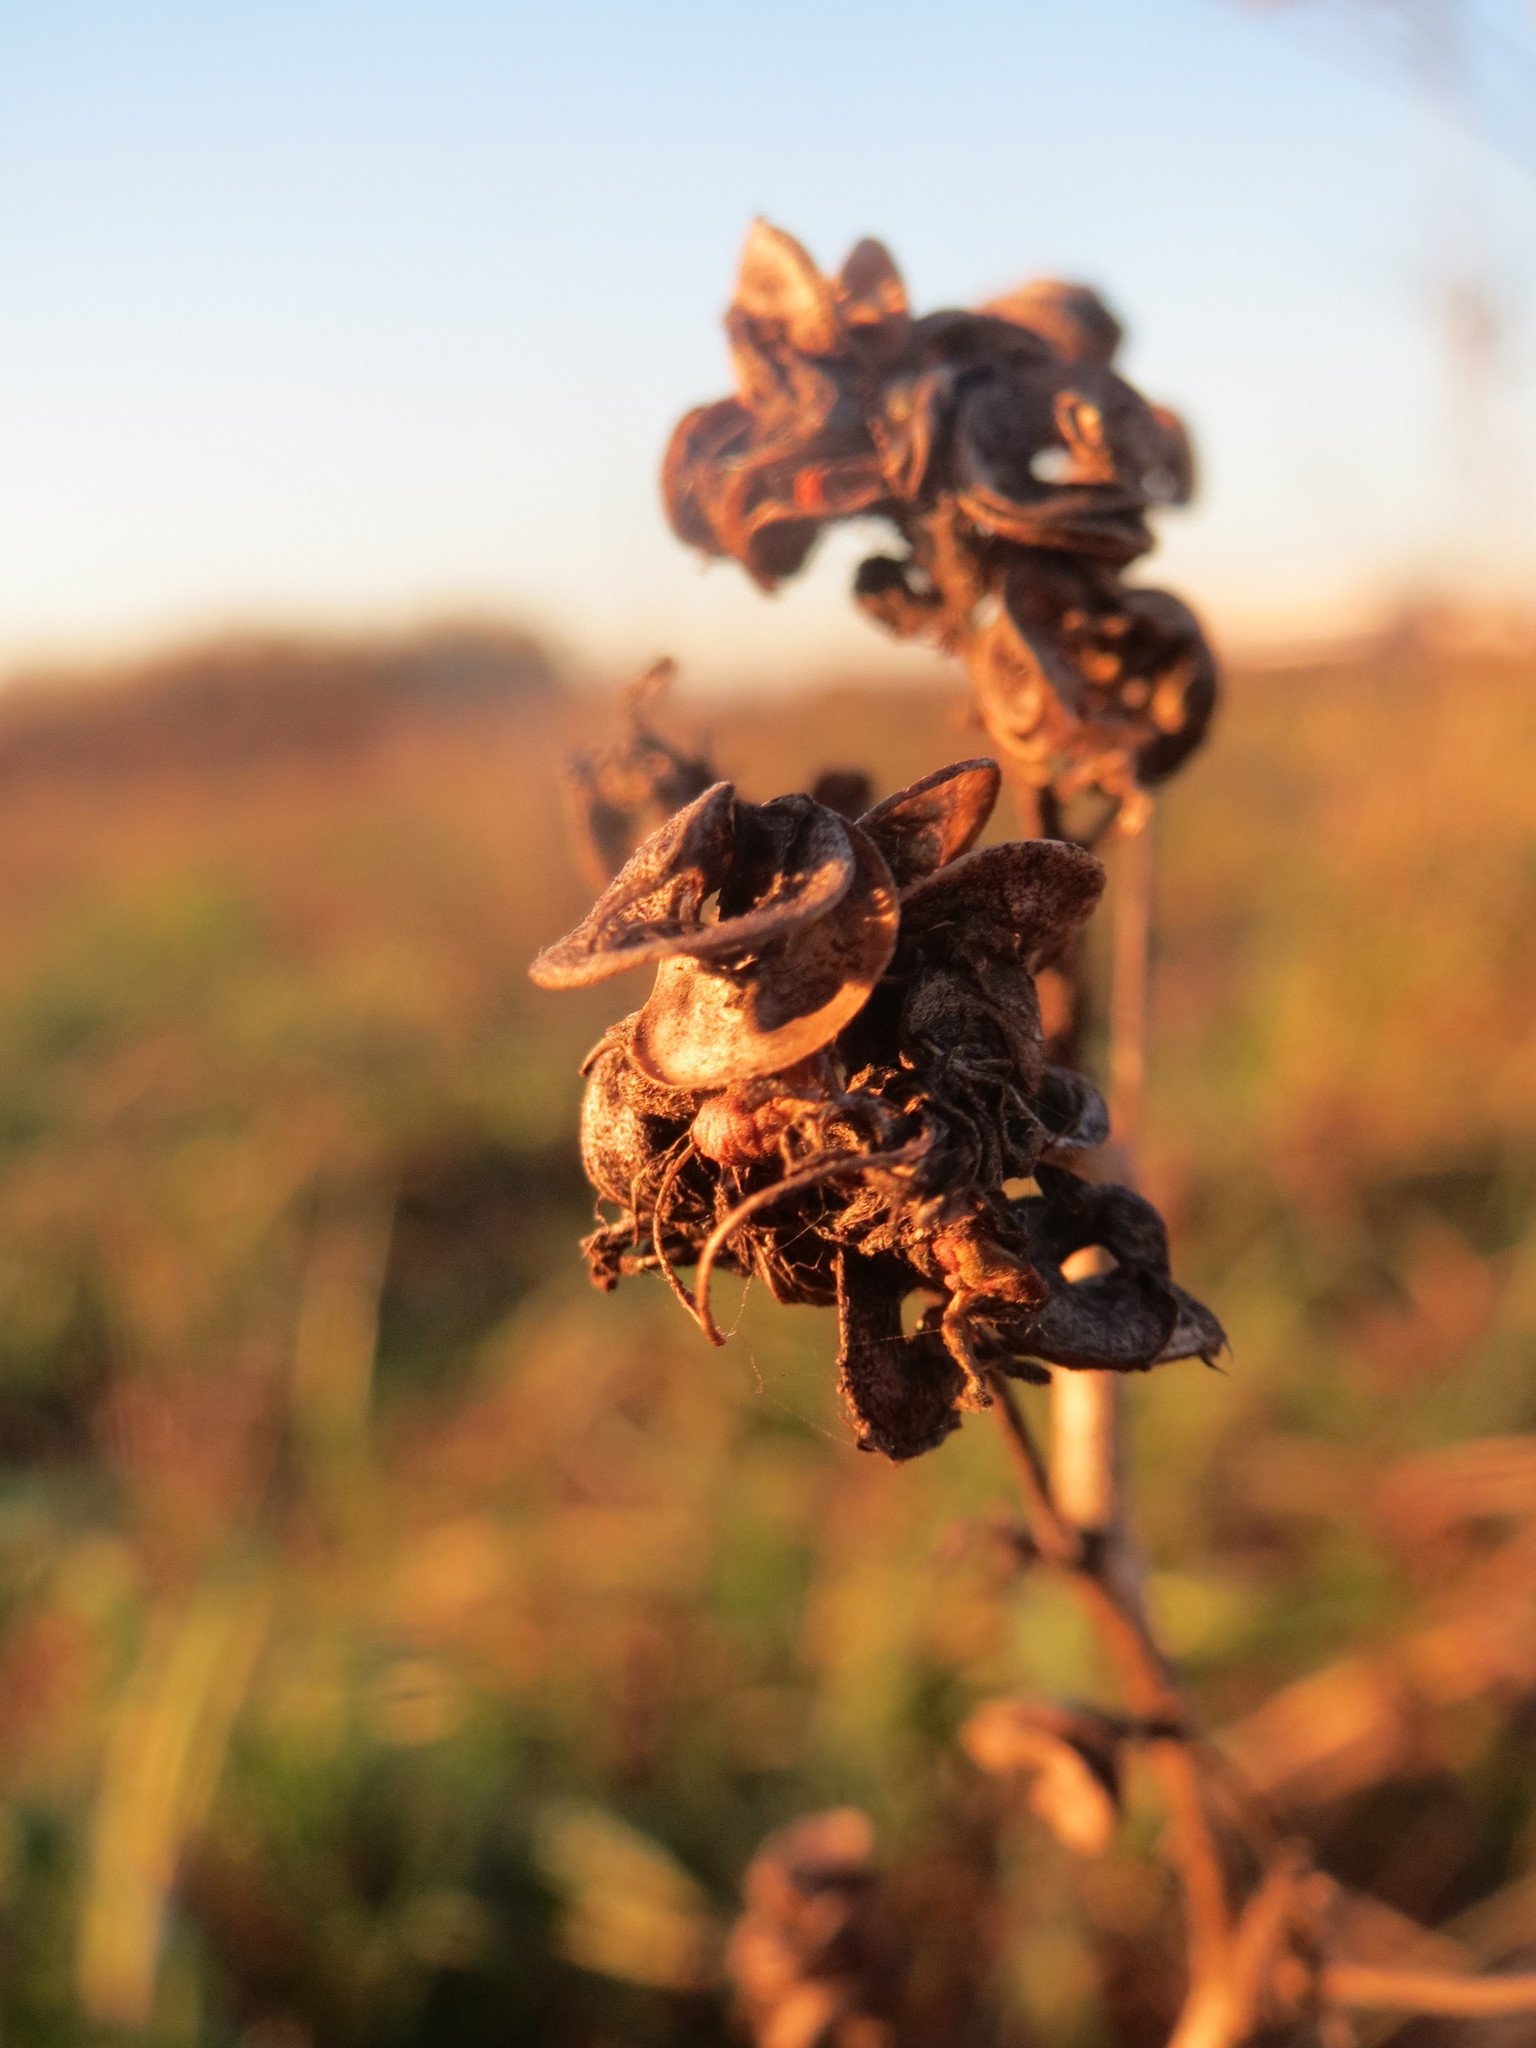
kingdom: Plantae
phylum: Tracheophyta
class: Magnoliopsida
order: Fabales
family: Fabaceae
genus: Medicago
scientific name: Medicago sativa
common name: Alfalfa
